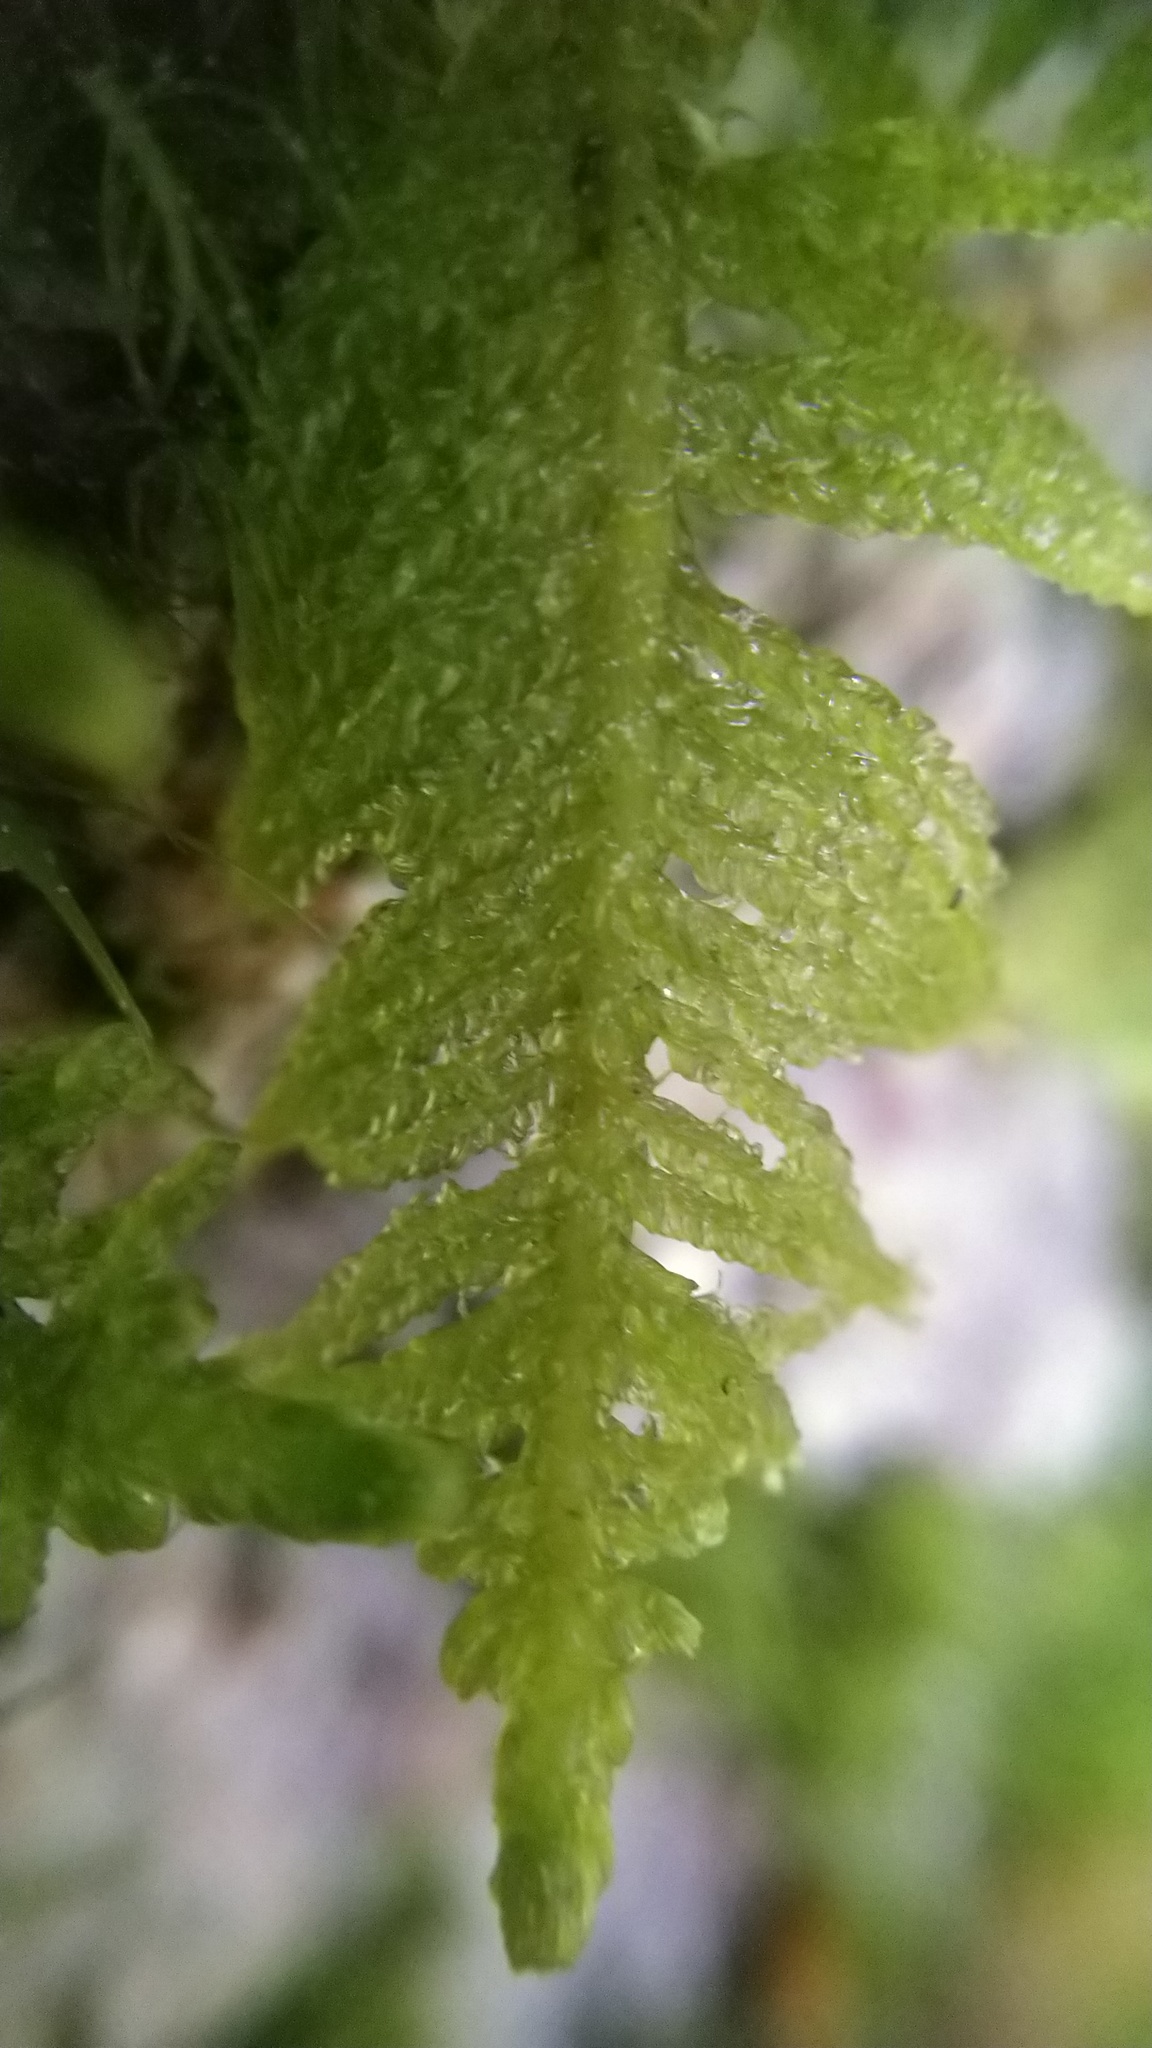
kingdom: Plantae
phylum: Bryophyta
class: Bryopsida
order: Hypnales
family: Pylaisiaceae
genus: Ptilium
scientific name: Ptilium crista-castrensis
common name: Knight's plume moss
